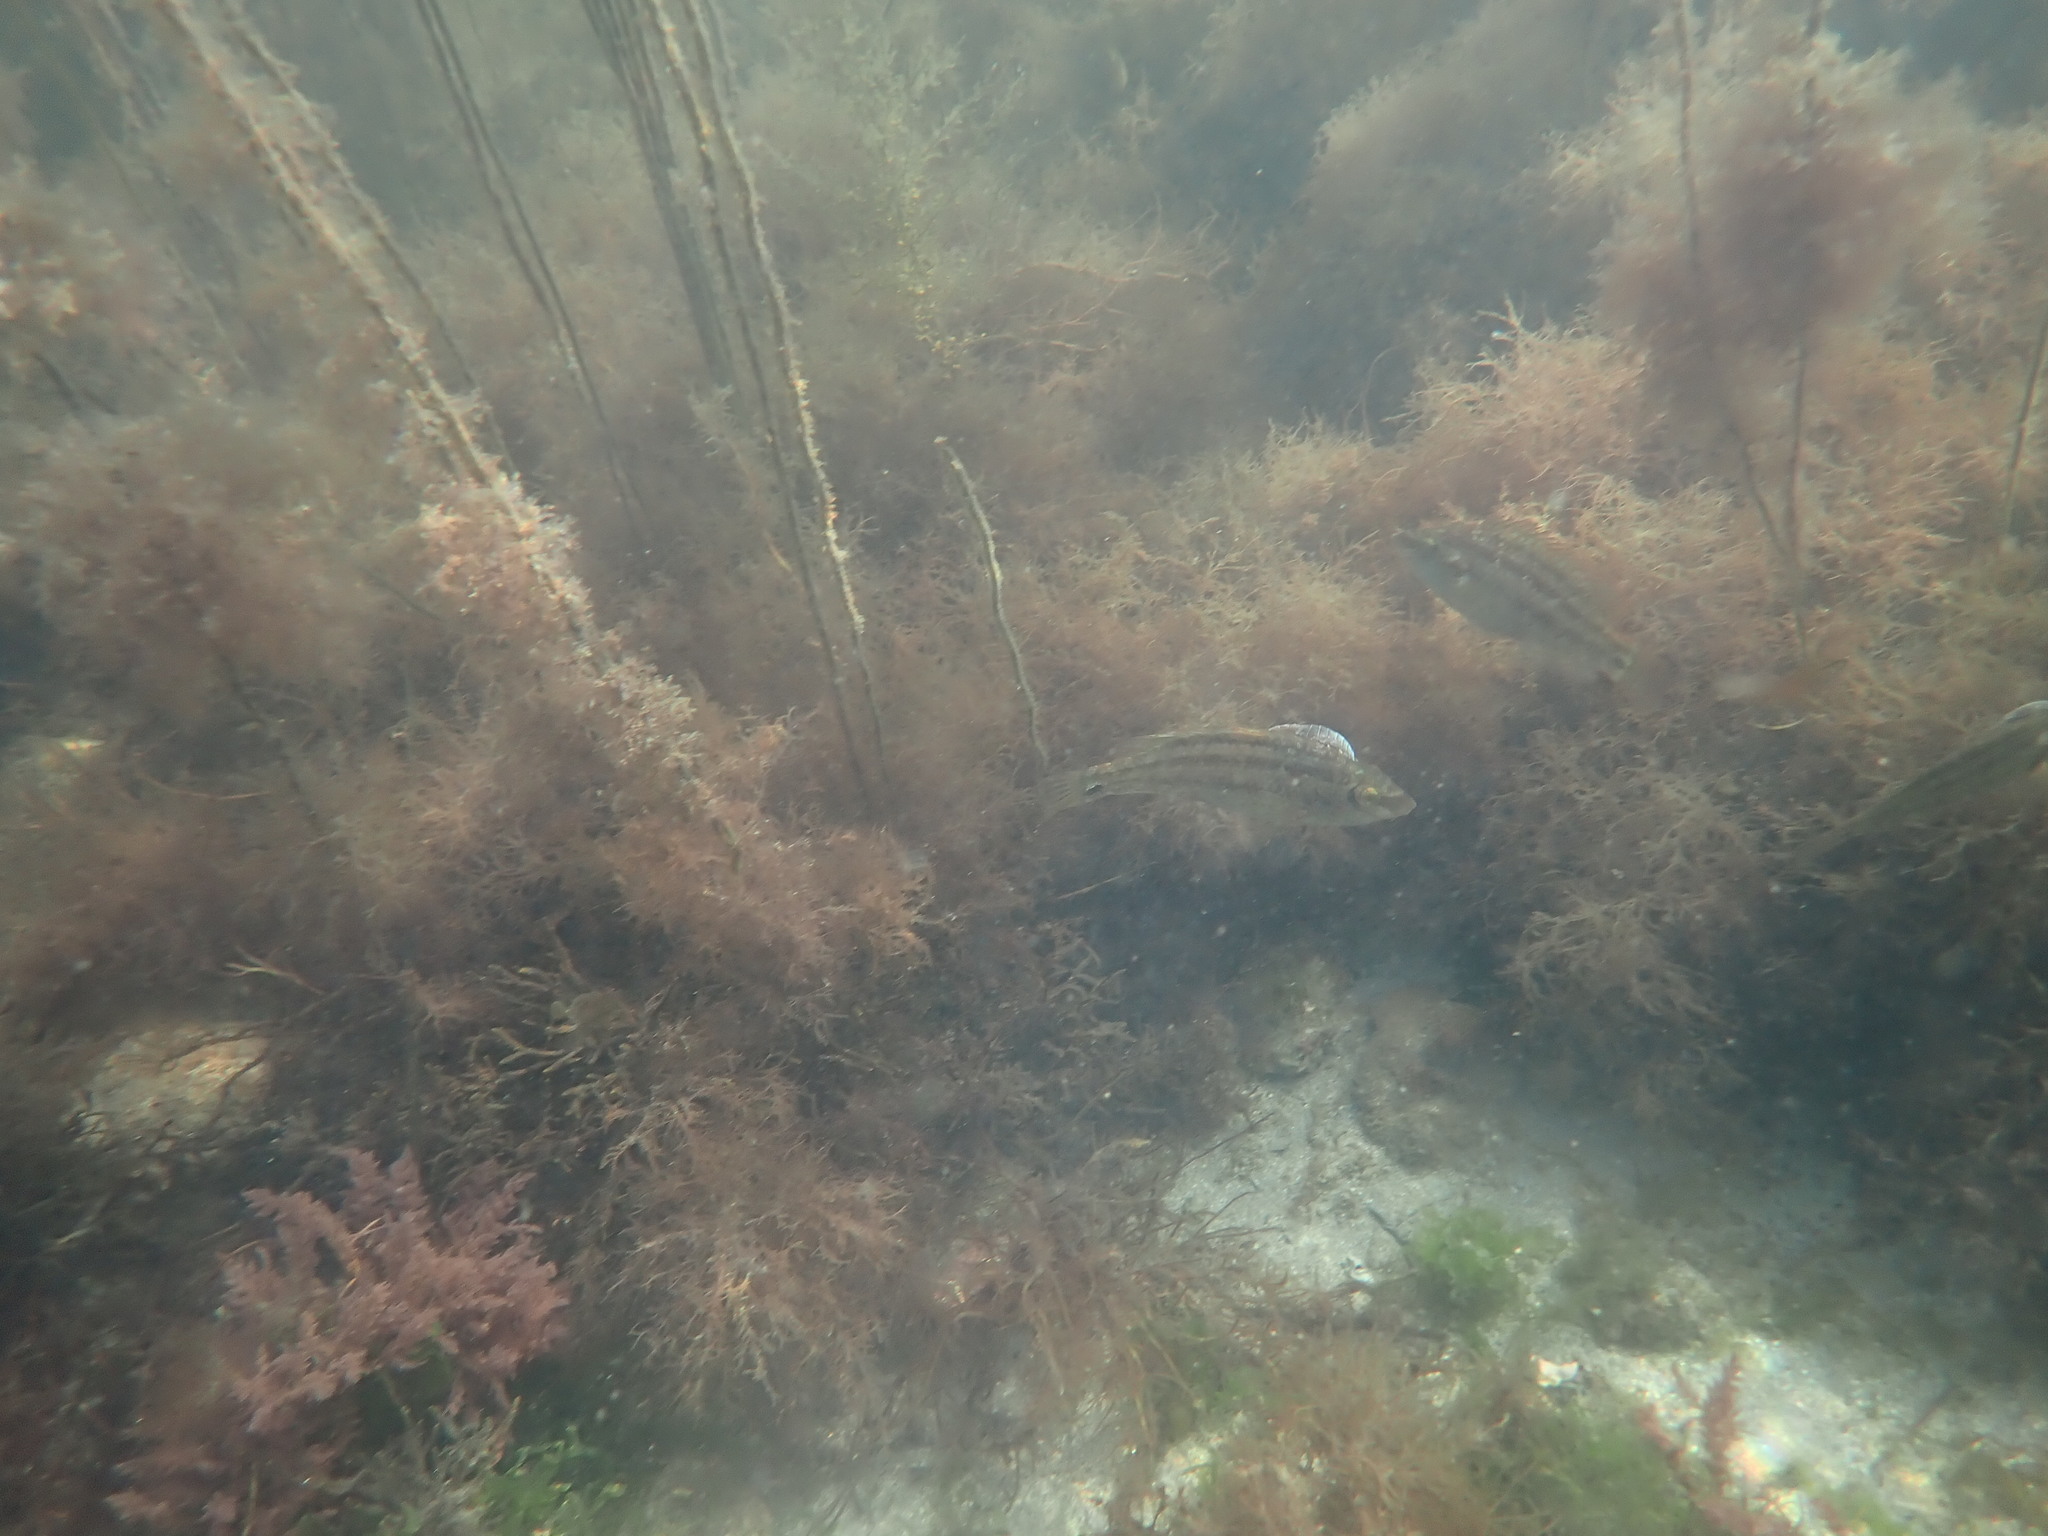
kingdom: Animalia
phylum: Chordata
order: Perciformes
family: Labridae
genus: Symphodus
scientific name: Symphodus melops
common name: Corkwing
